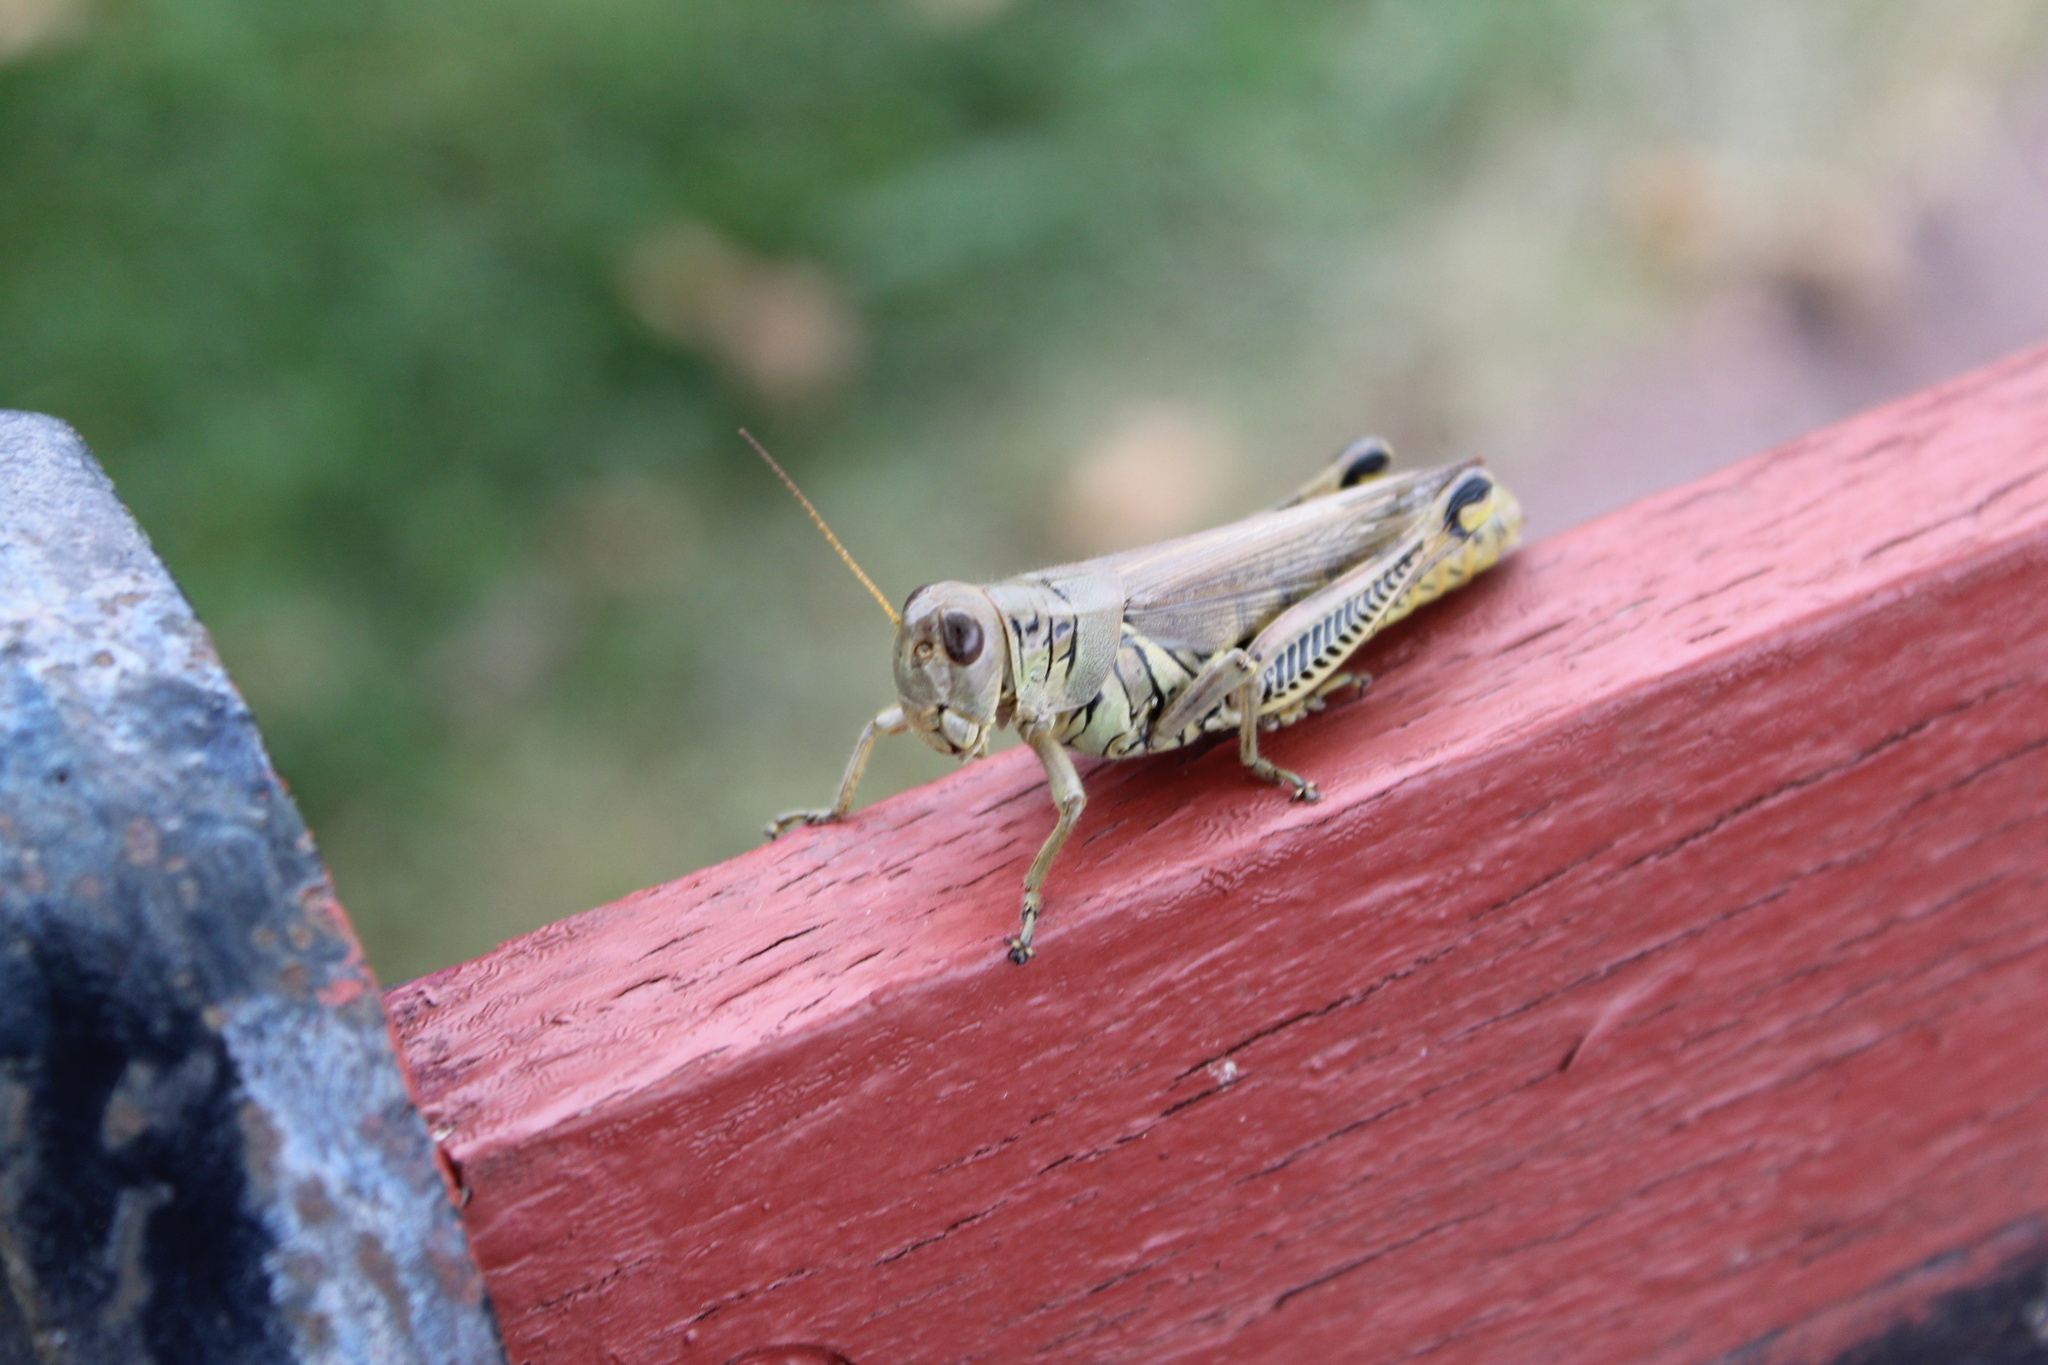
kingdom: Animalia
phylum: Arthropoda
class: Insecta
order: Orthoptera
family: Acrididae
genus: Melanoplus
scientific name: Melanoplus differentialis
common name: Differential grasshopper
